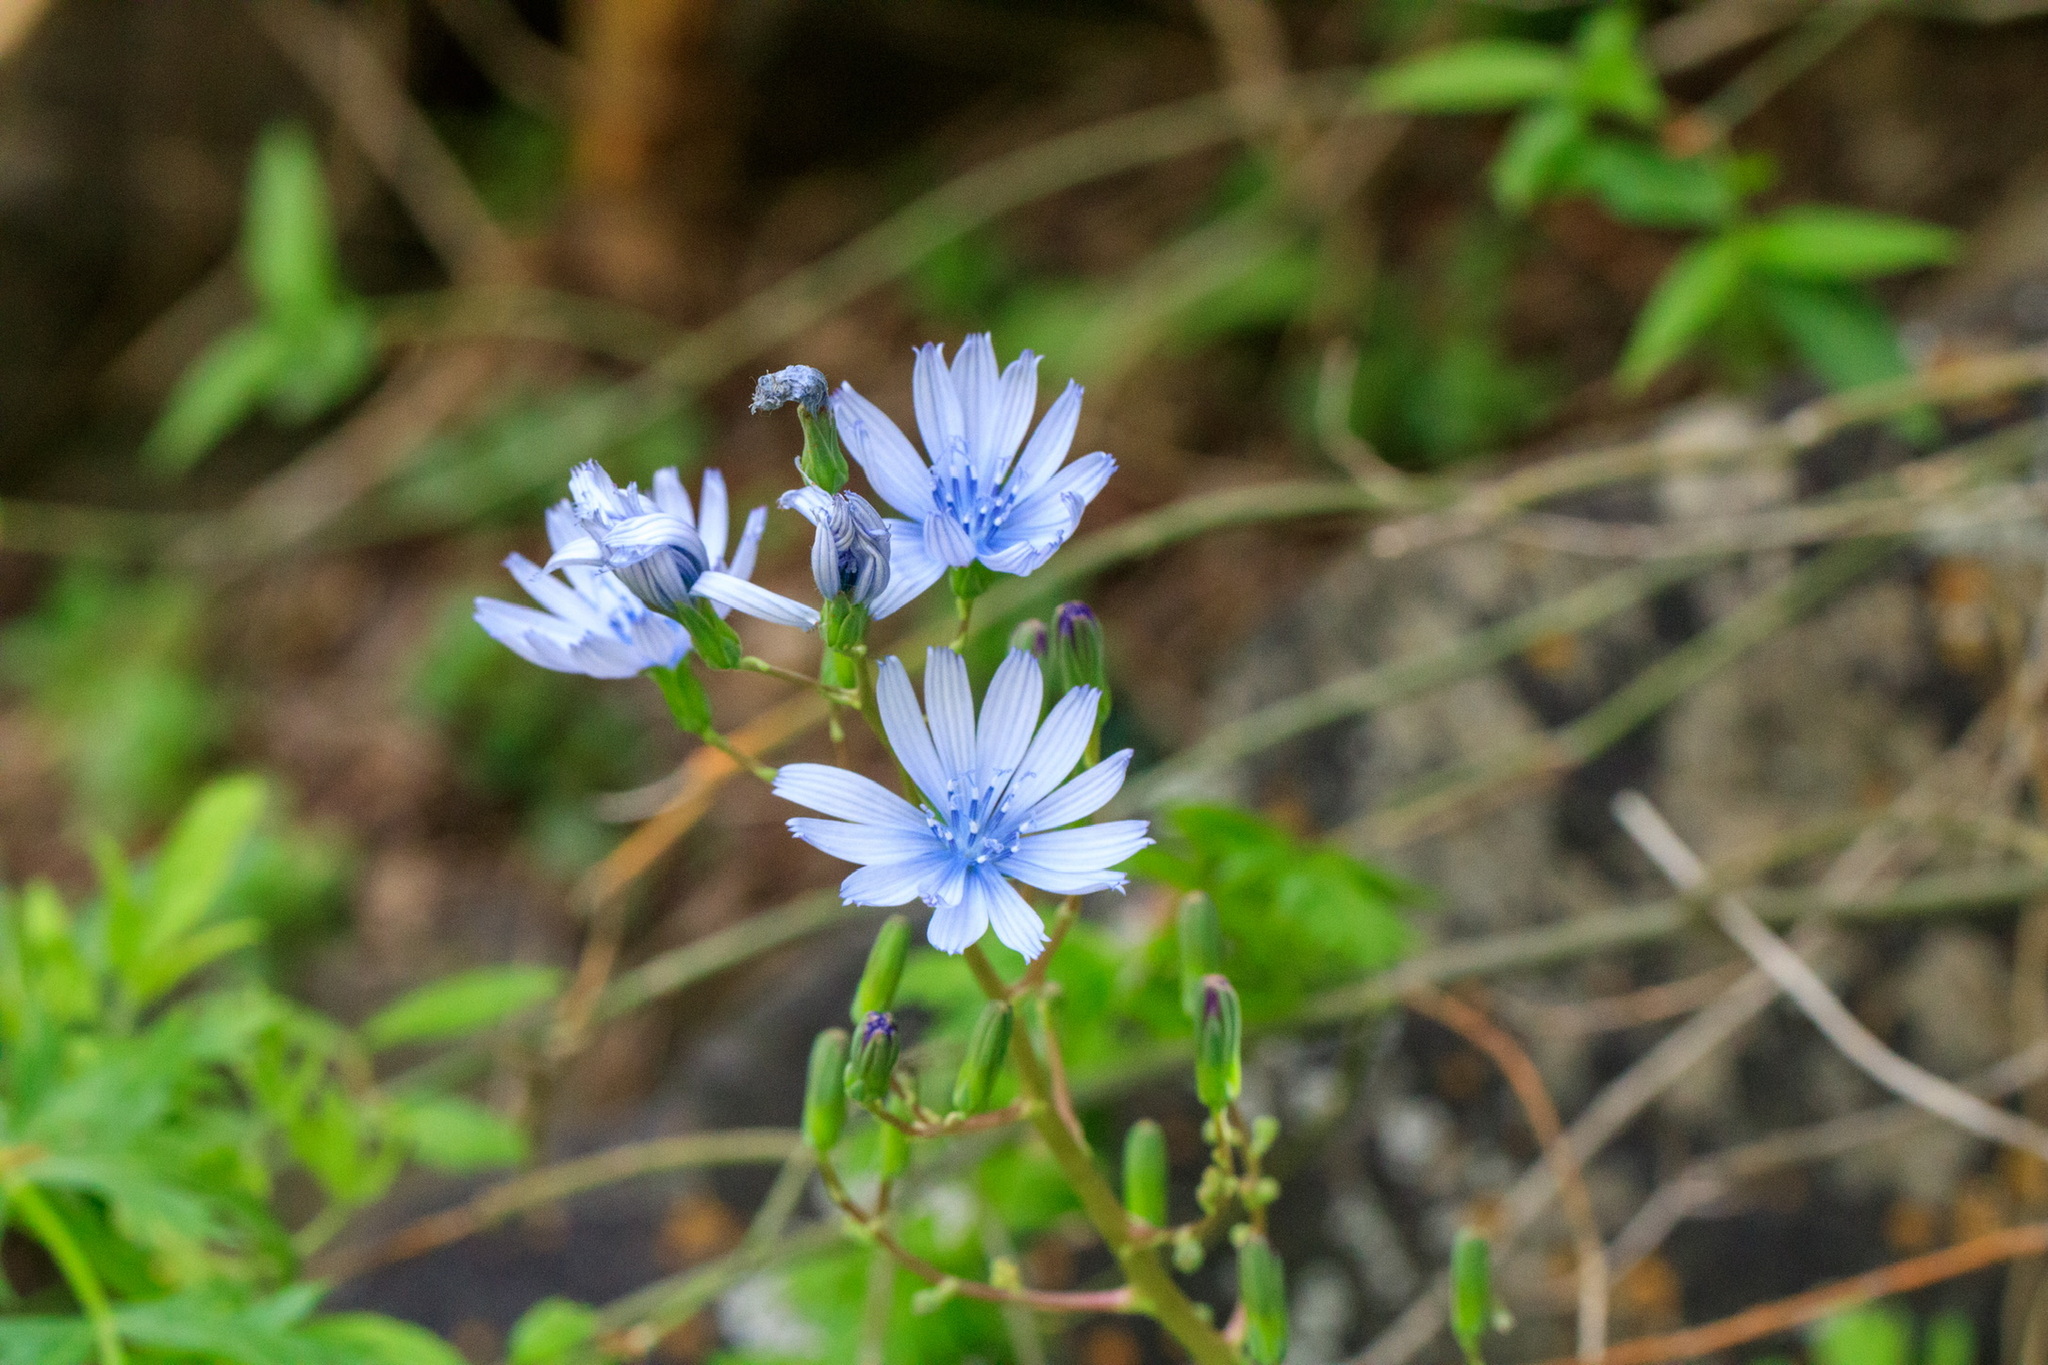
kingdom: Plantae
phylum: Tracheophyta
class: Magnoliopsida
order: Asterales
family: Asteraceae
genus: Cichorium
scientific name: Cichorium intybus
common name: Chicory
